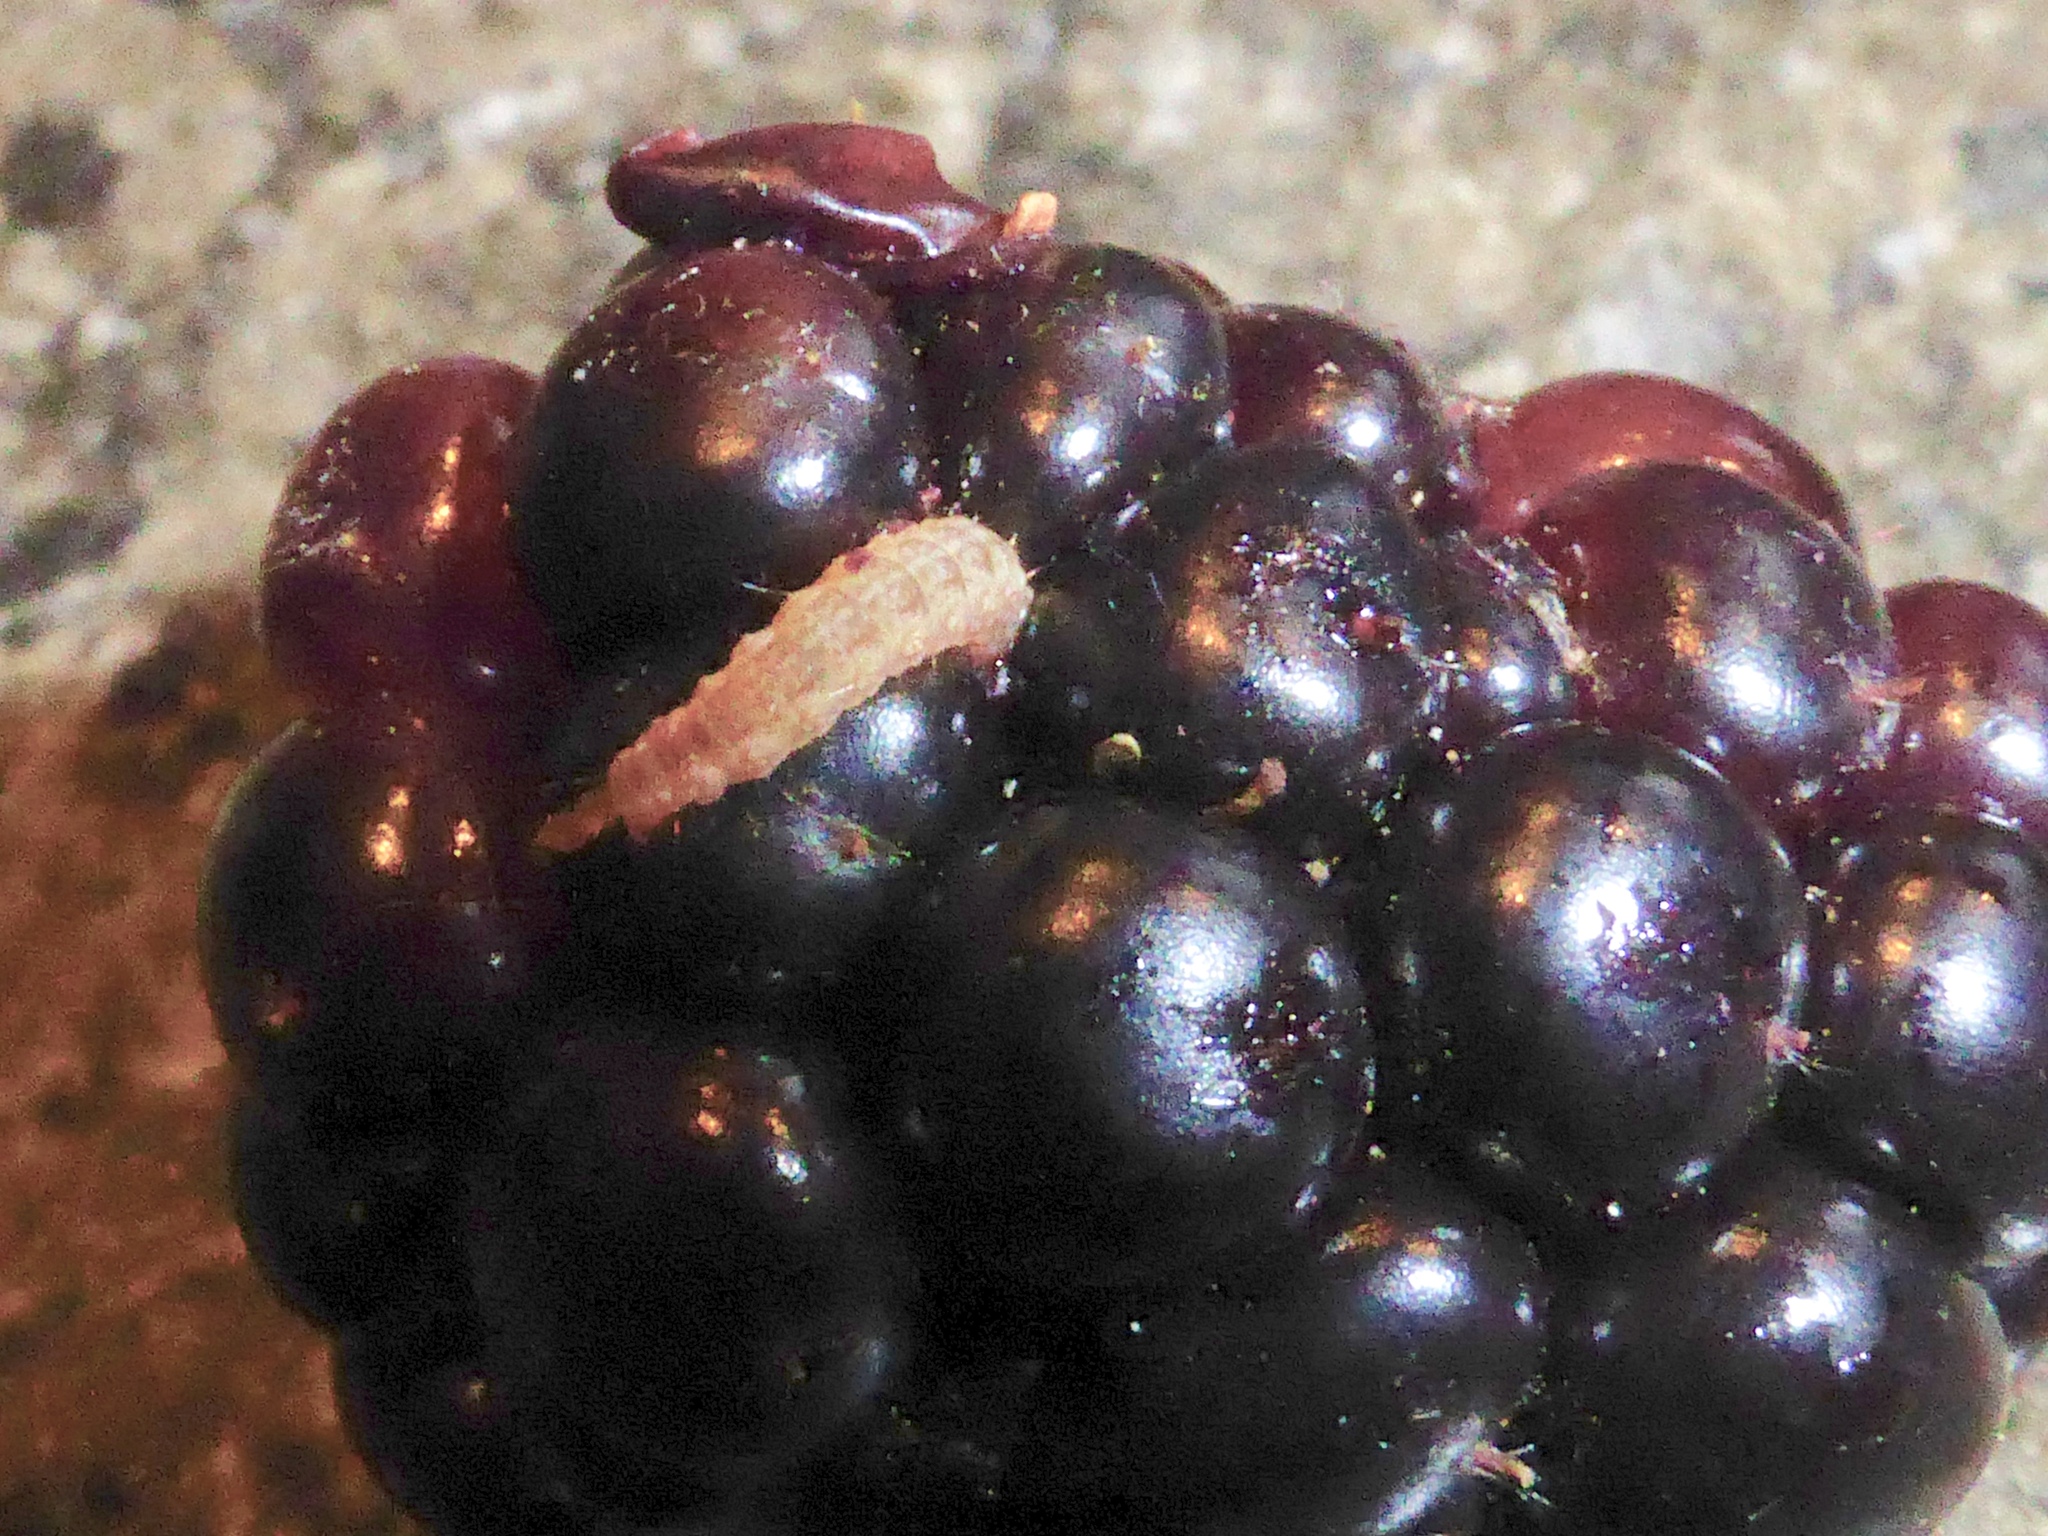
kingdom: Animalia
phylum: Arthropoda
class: Insecta
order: Lepidoptera
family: Carposinidae
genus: Carposina
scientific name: Carposina rubophaga
